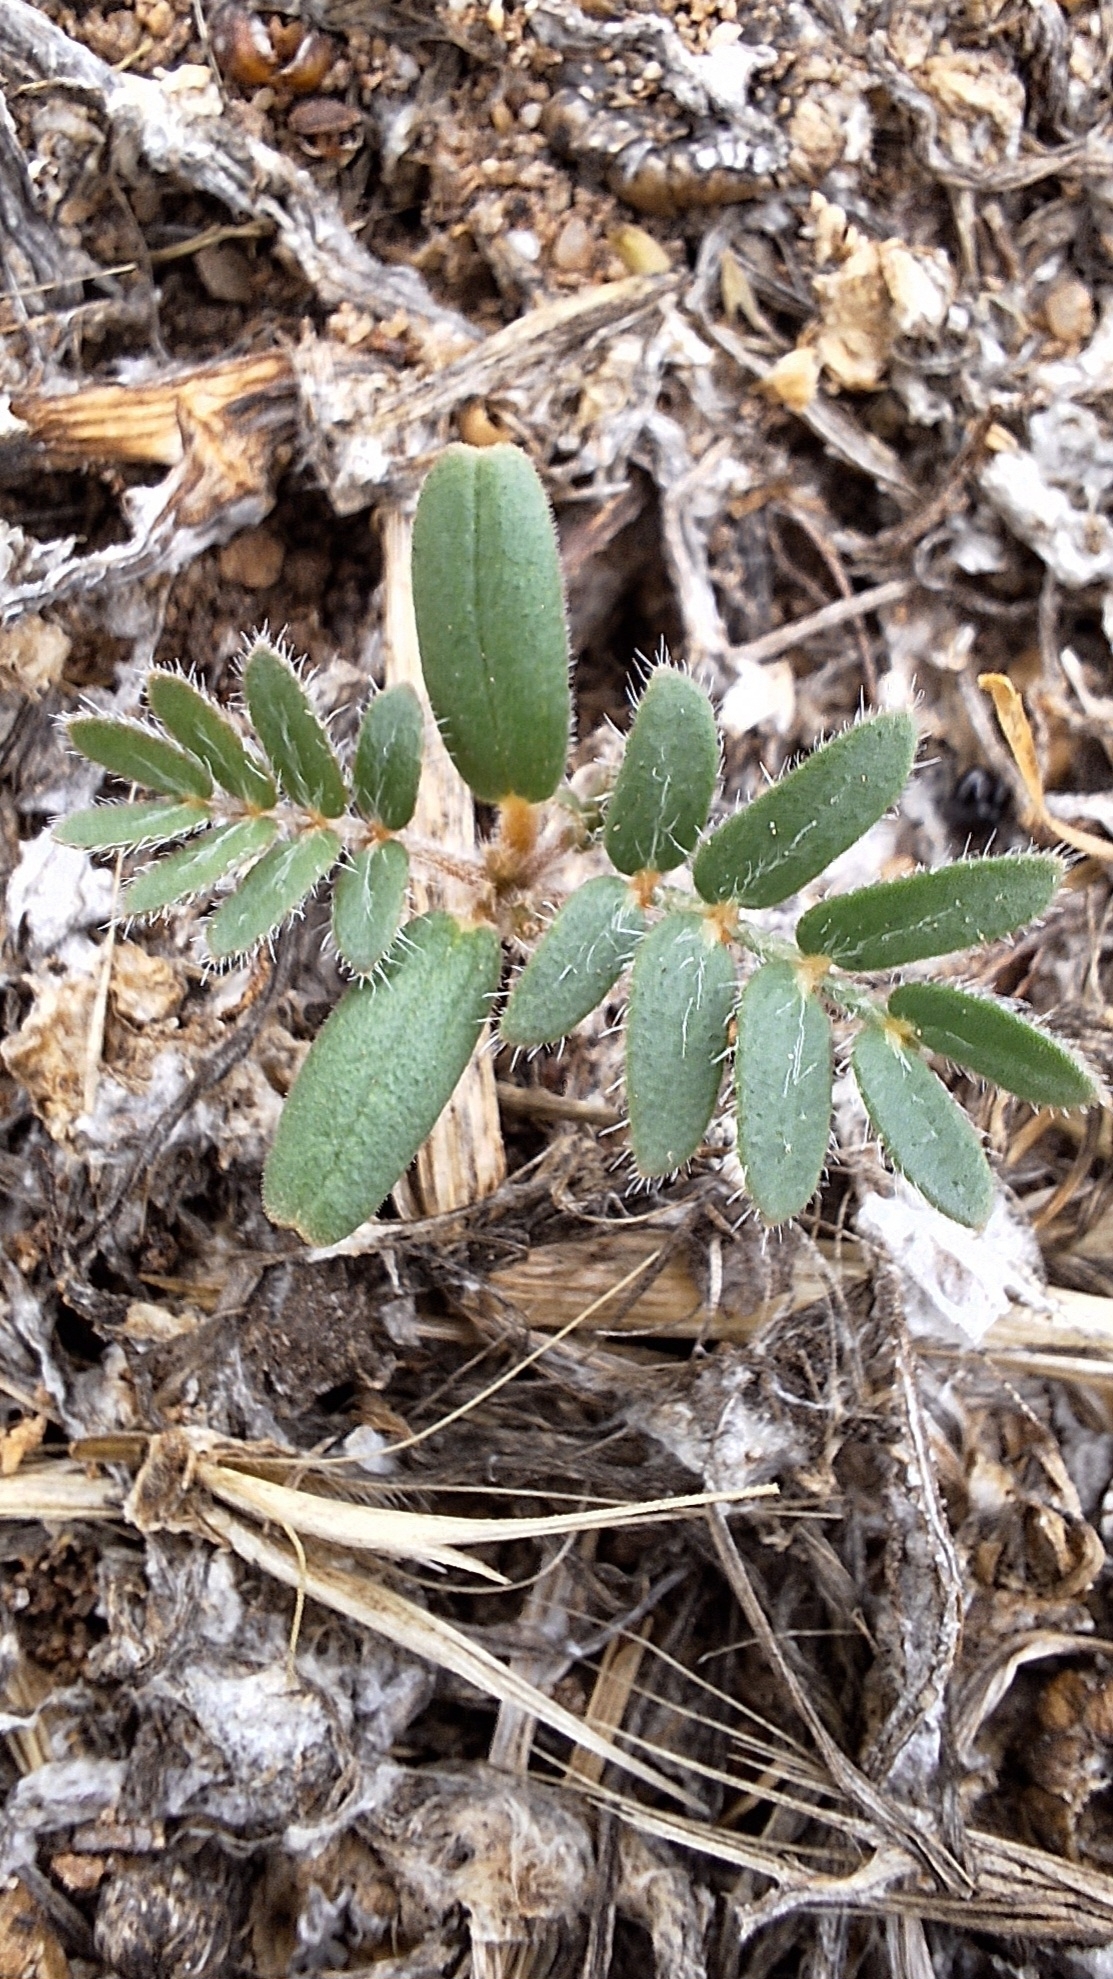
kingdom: Plantae
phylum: Tracheophyta
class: Magnoliopsida
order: Zygophyllales
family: Zygophyllaceae
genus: Tribulus
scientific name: Tribulus terrestris
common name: Puncturevine
